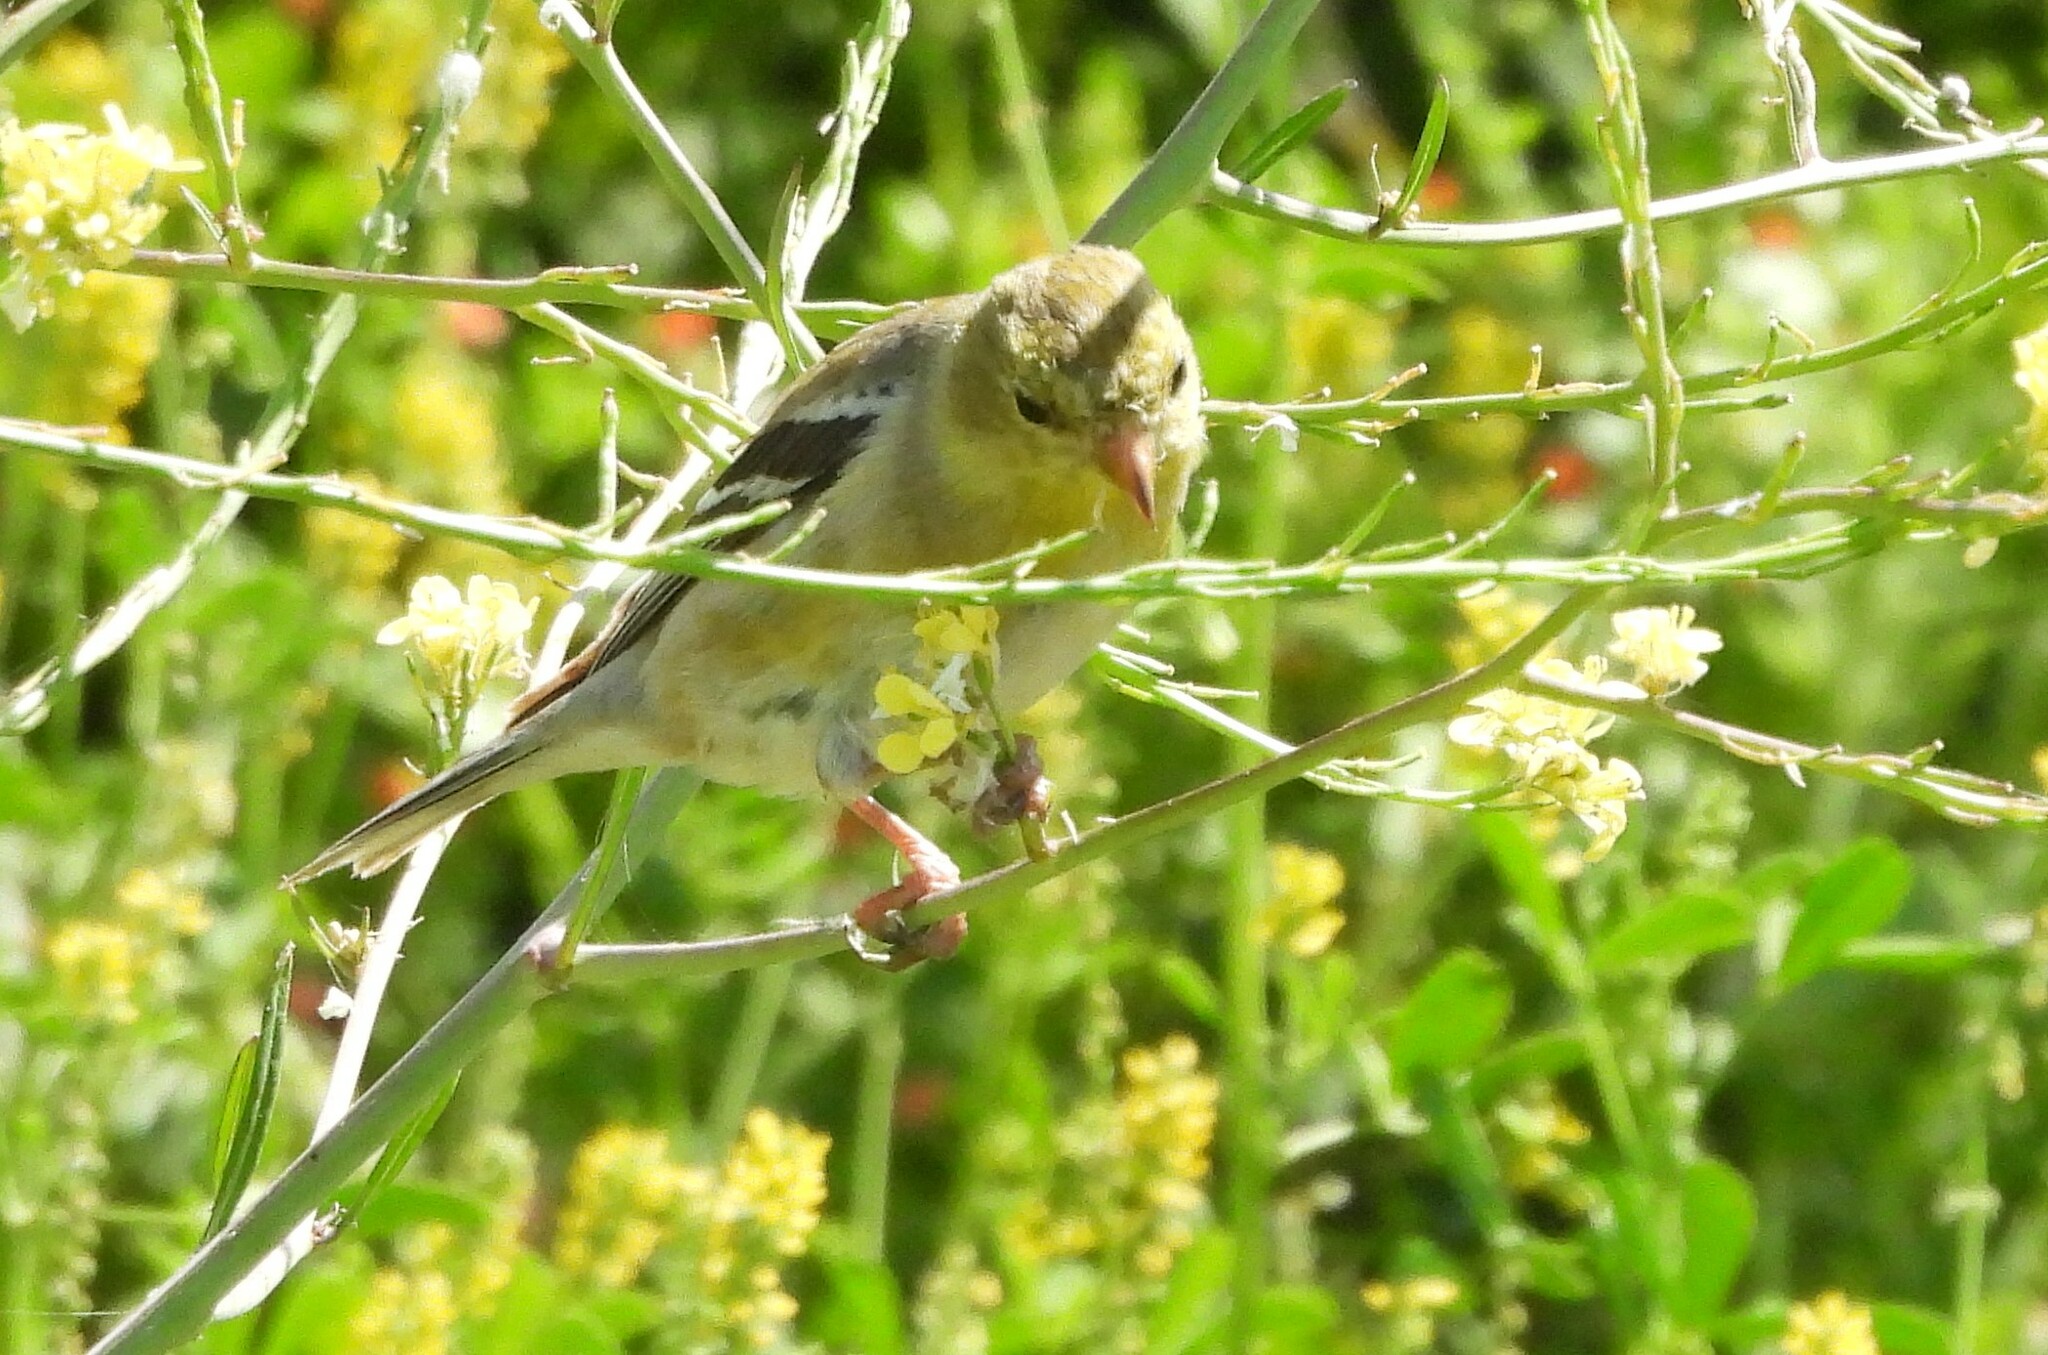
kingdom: Animalia
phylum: Chordata
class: Aves
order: Passeriformes
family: Fringillidae
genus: Spinus
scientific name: Spinus tristis
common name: American goldfinch
